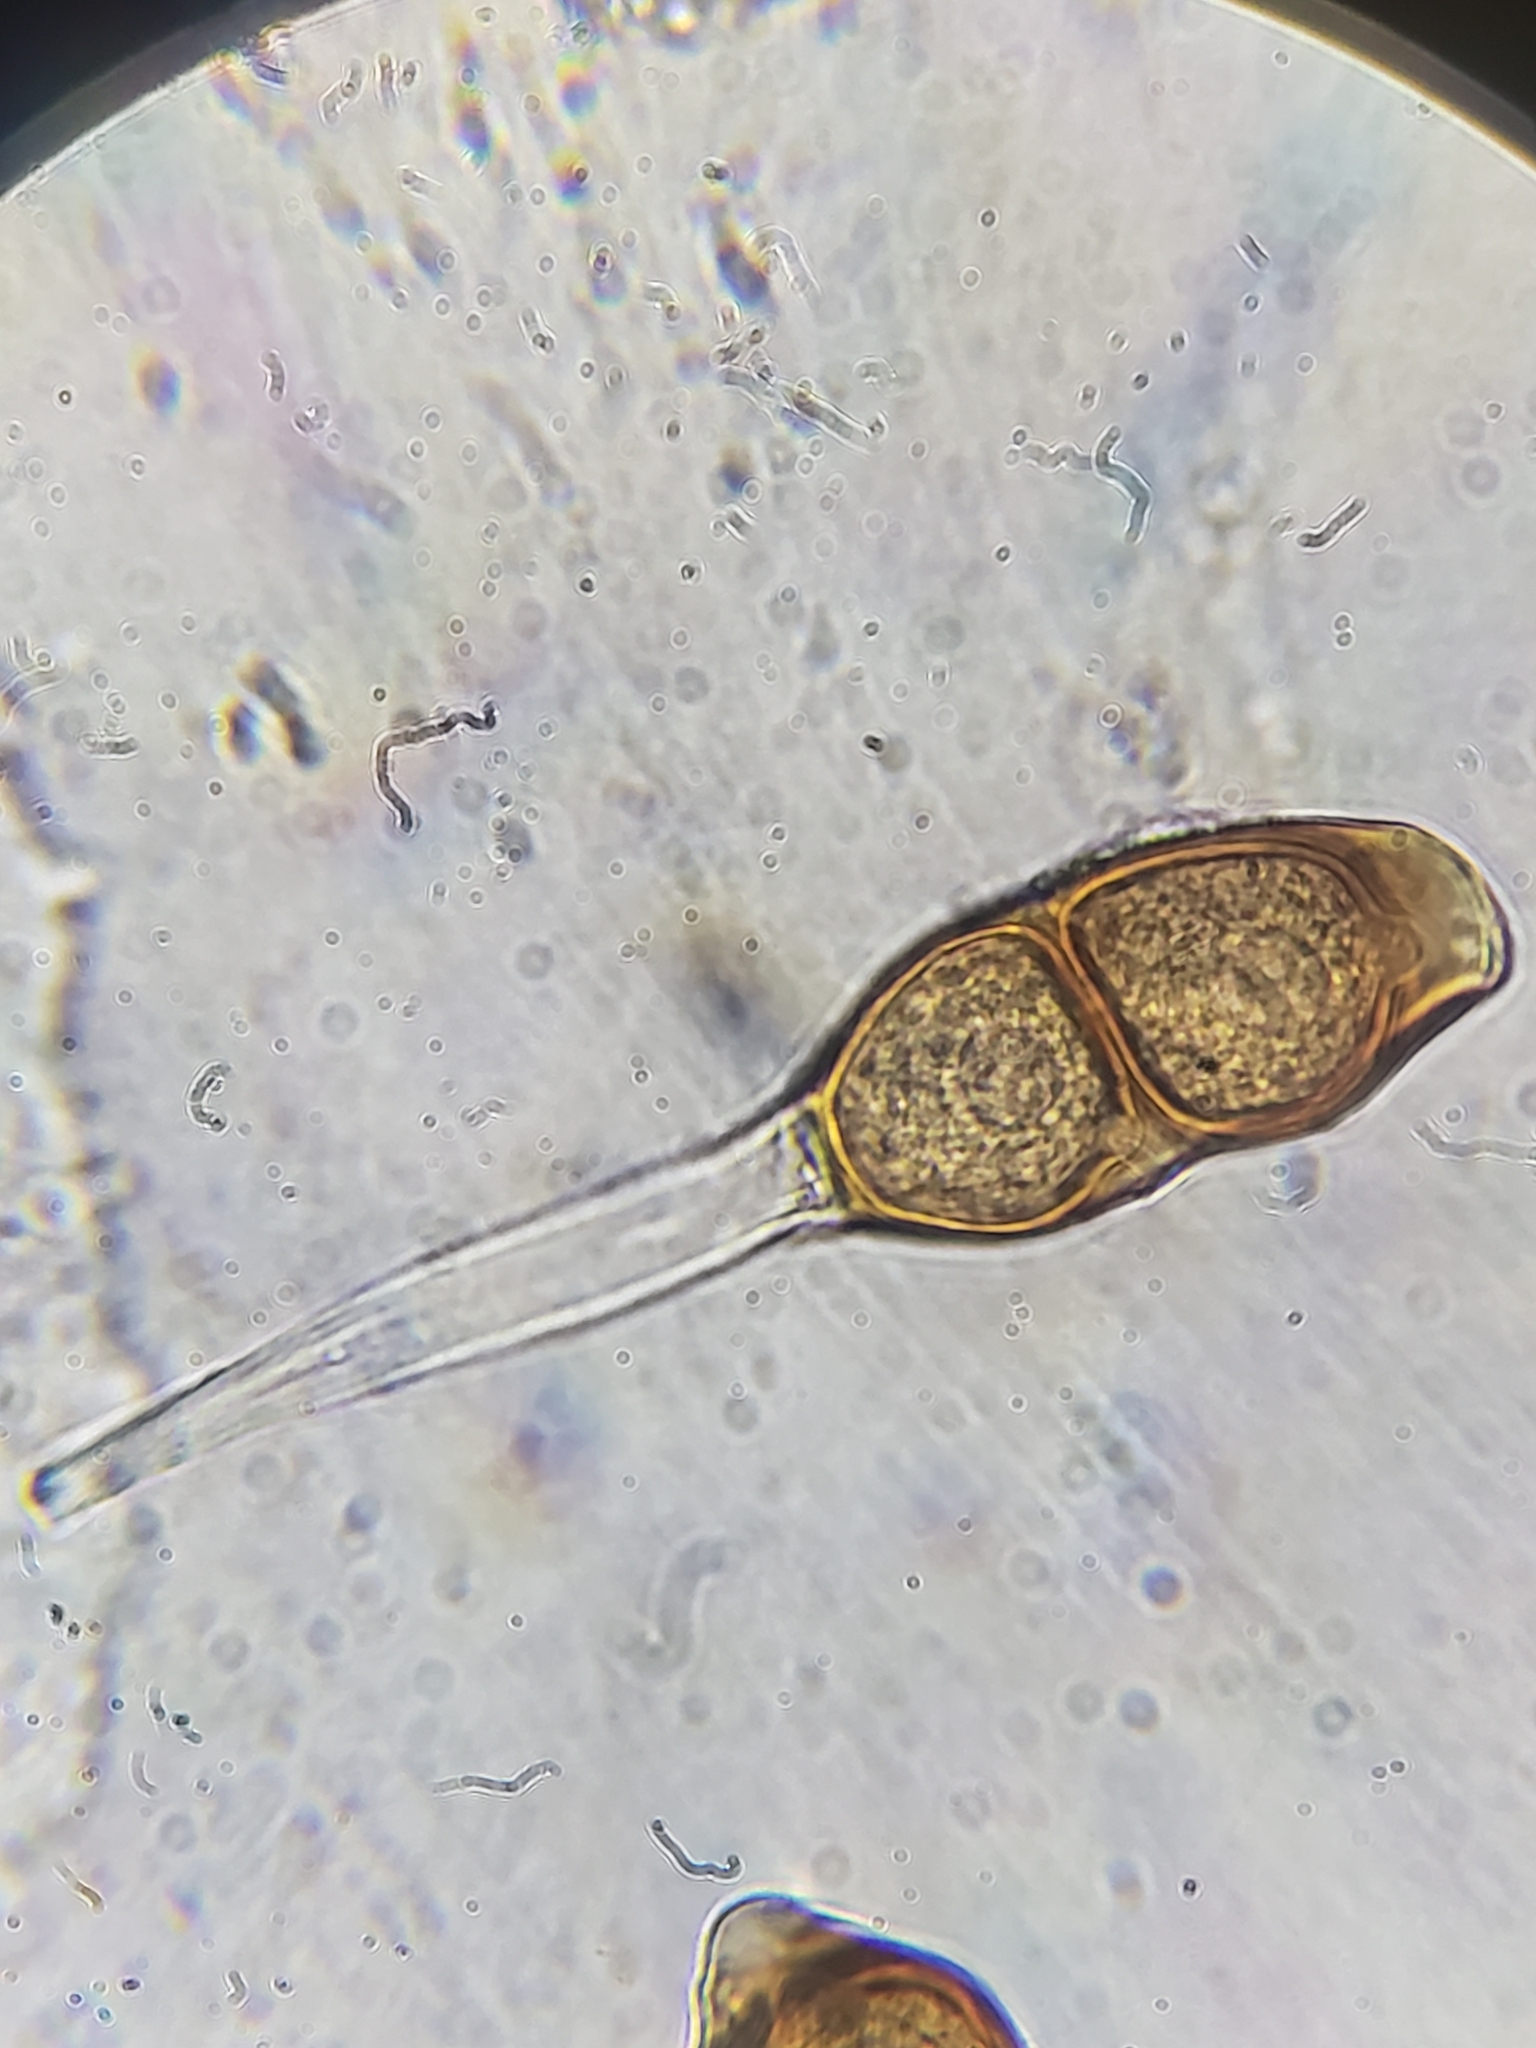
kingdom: Fungi
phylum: Basidiomycota
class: Pucciniomycetes
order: Pucciniales
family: Pucciniaceae
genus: Puccinia
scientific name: Puccinia helianthi-mollis
